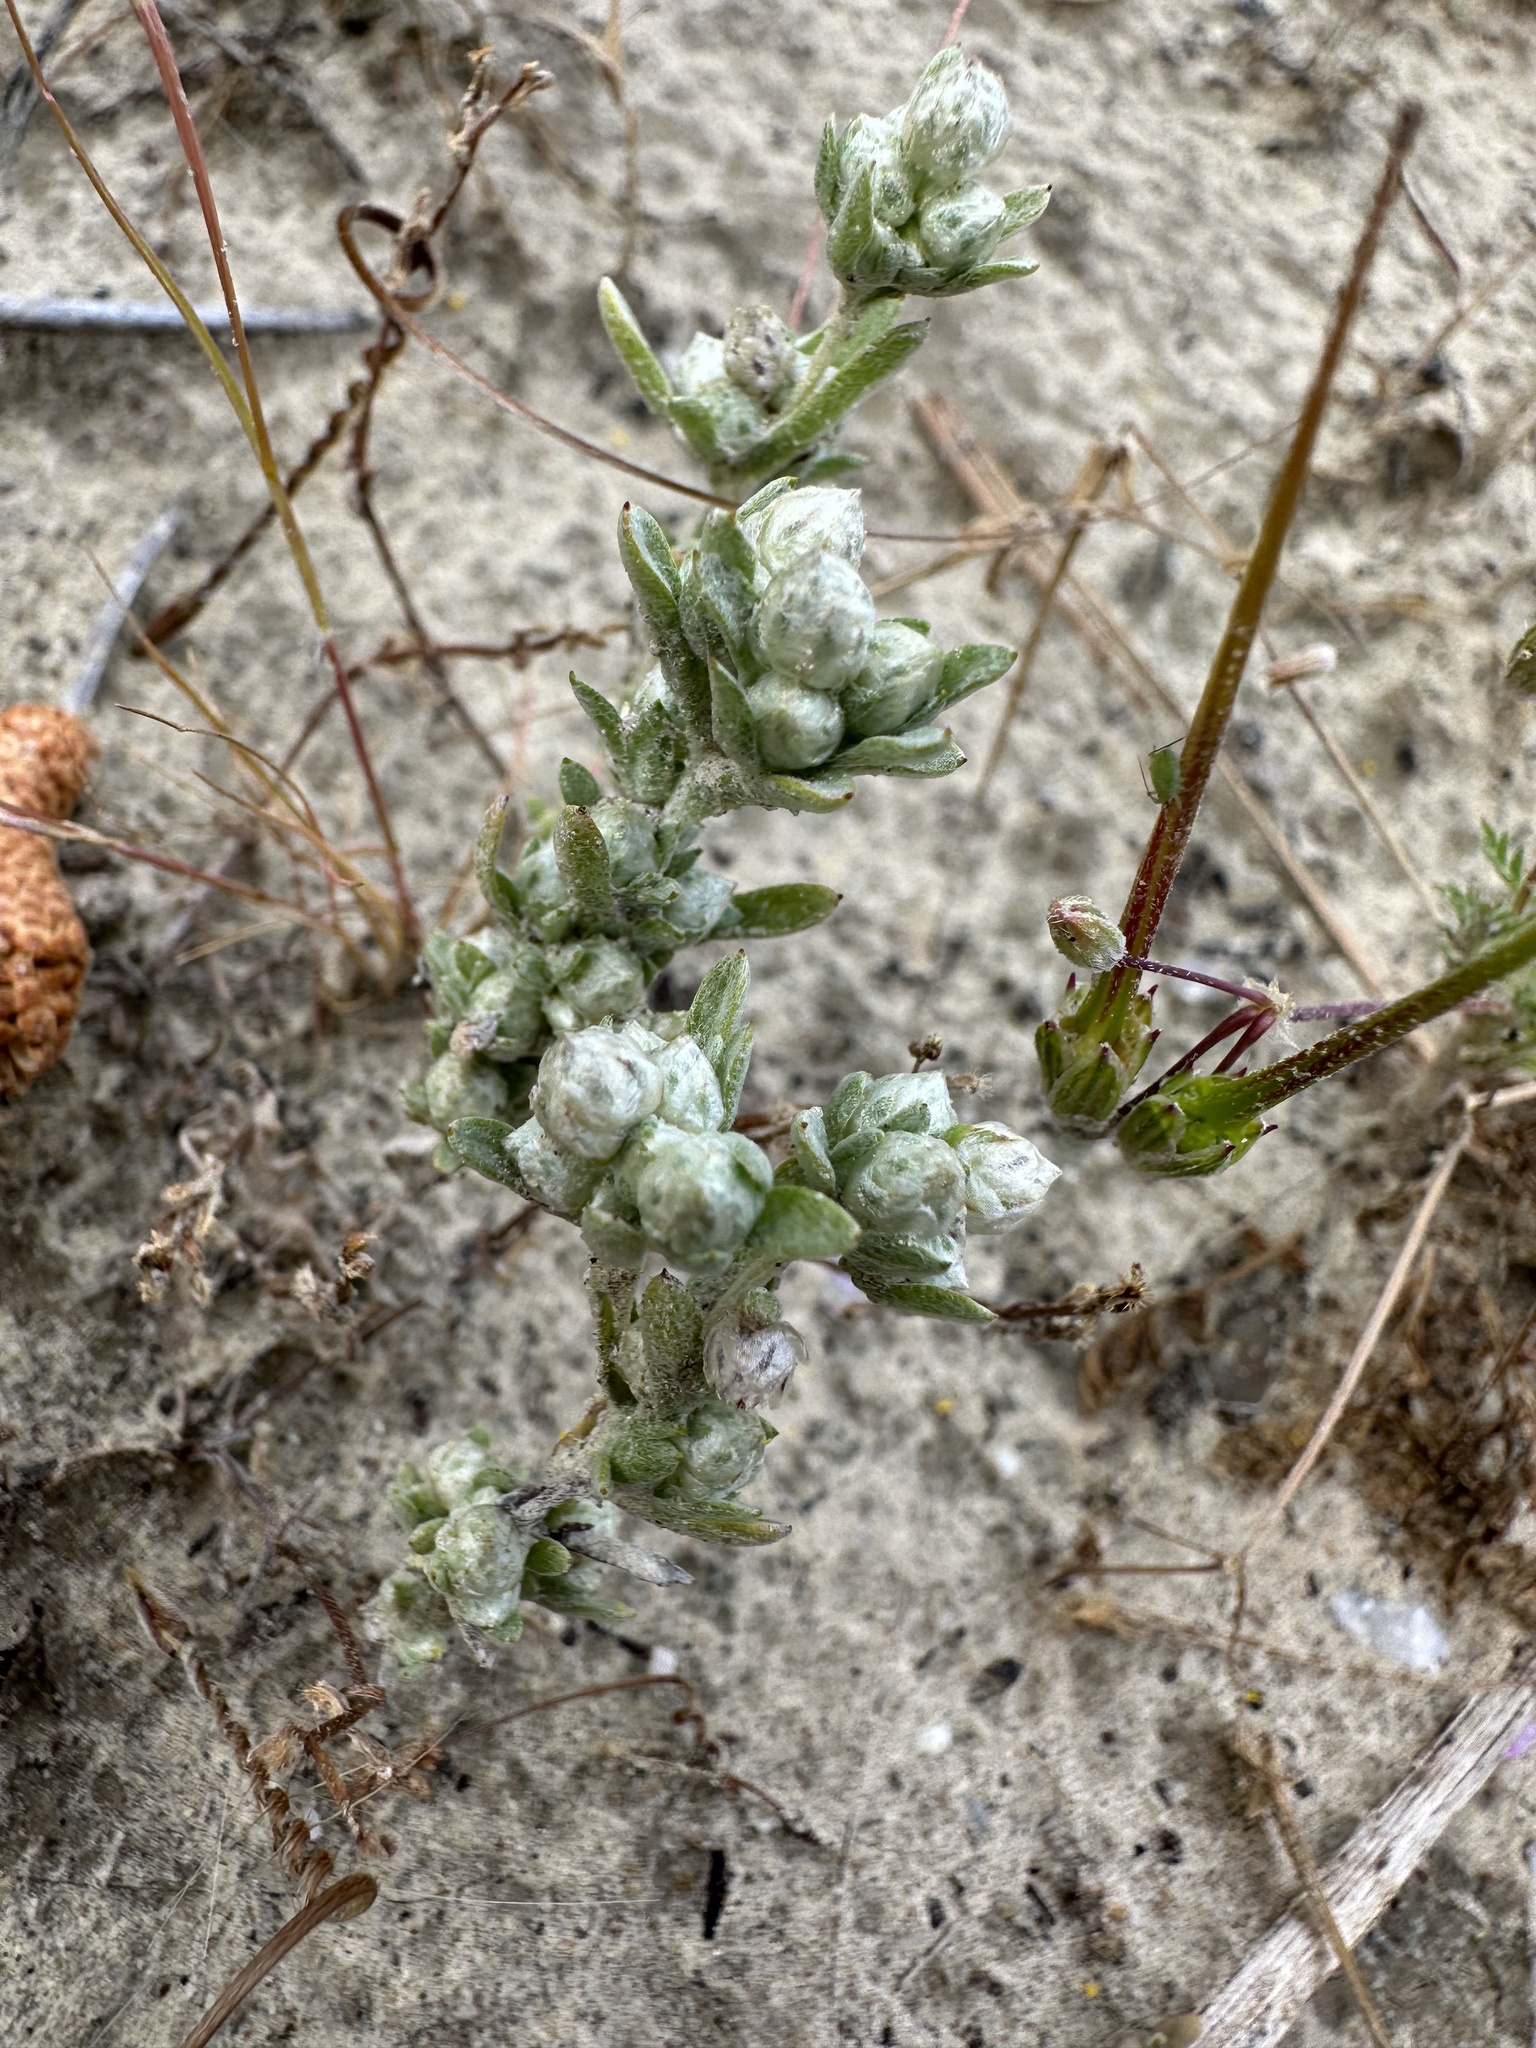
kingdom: Plantae
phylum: Tracheophyta
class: Magnoliopsida
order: Asterales
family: Asteraceae
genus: Stylocline
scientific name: Stylocline gnaphaloides
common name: Everlasting nest-straw
